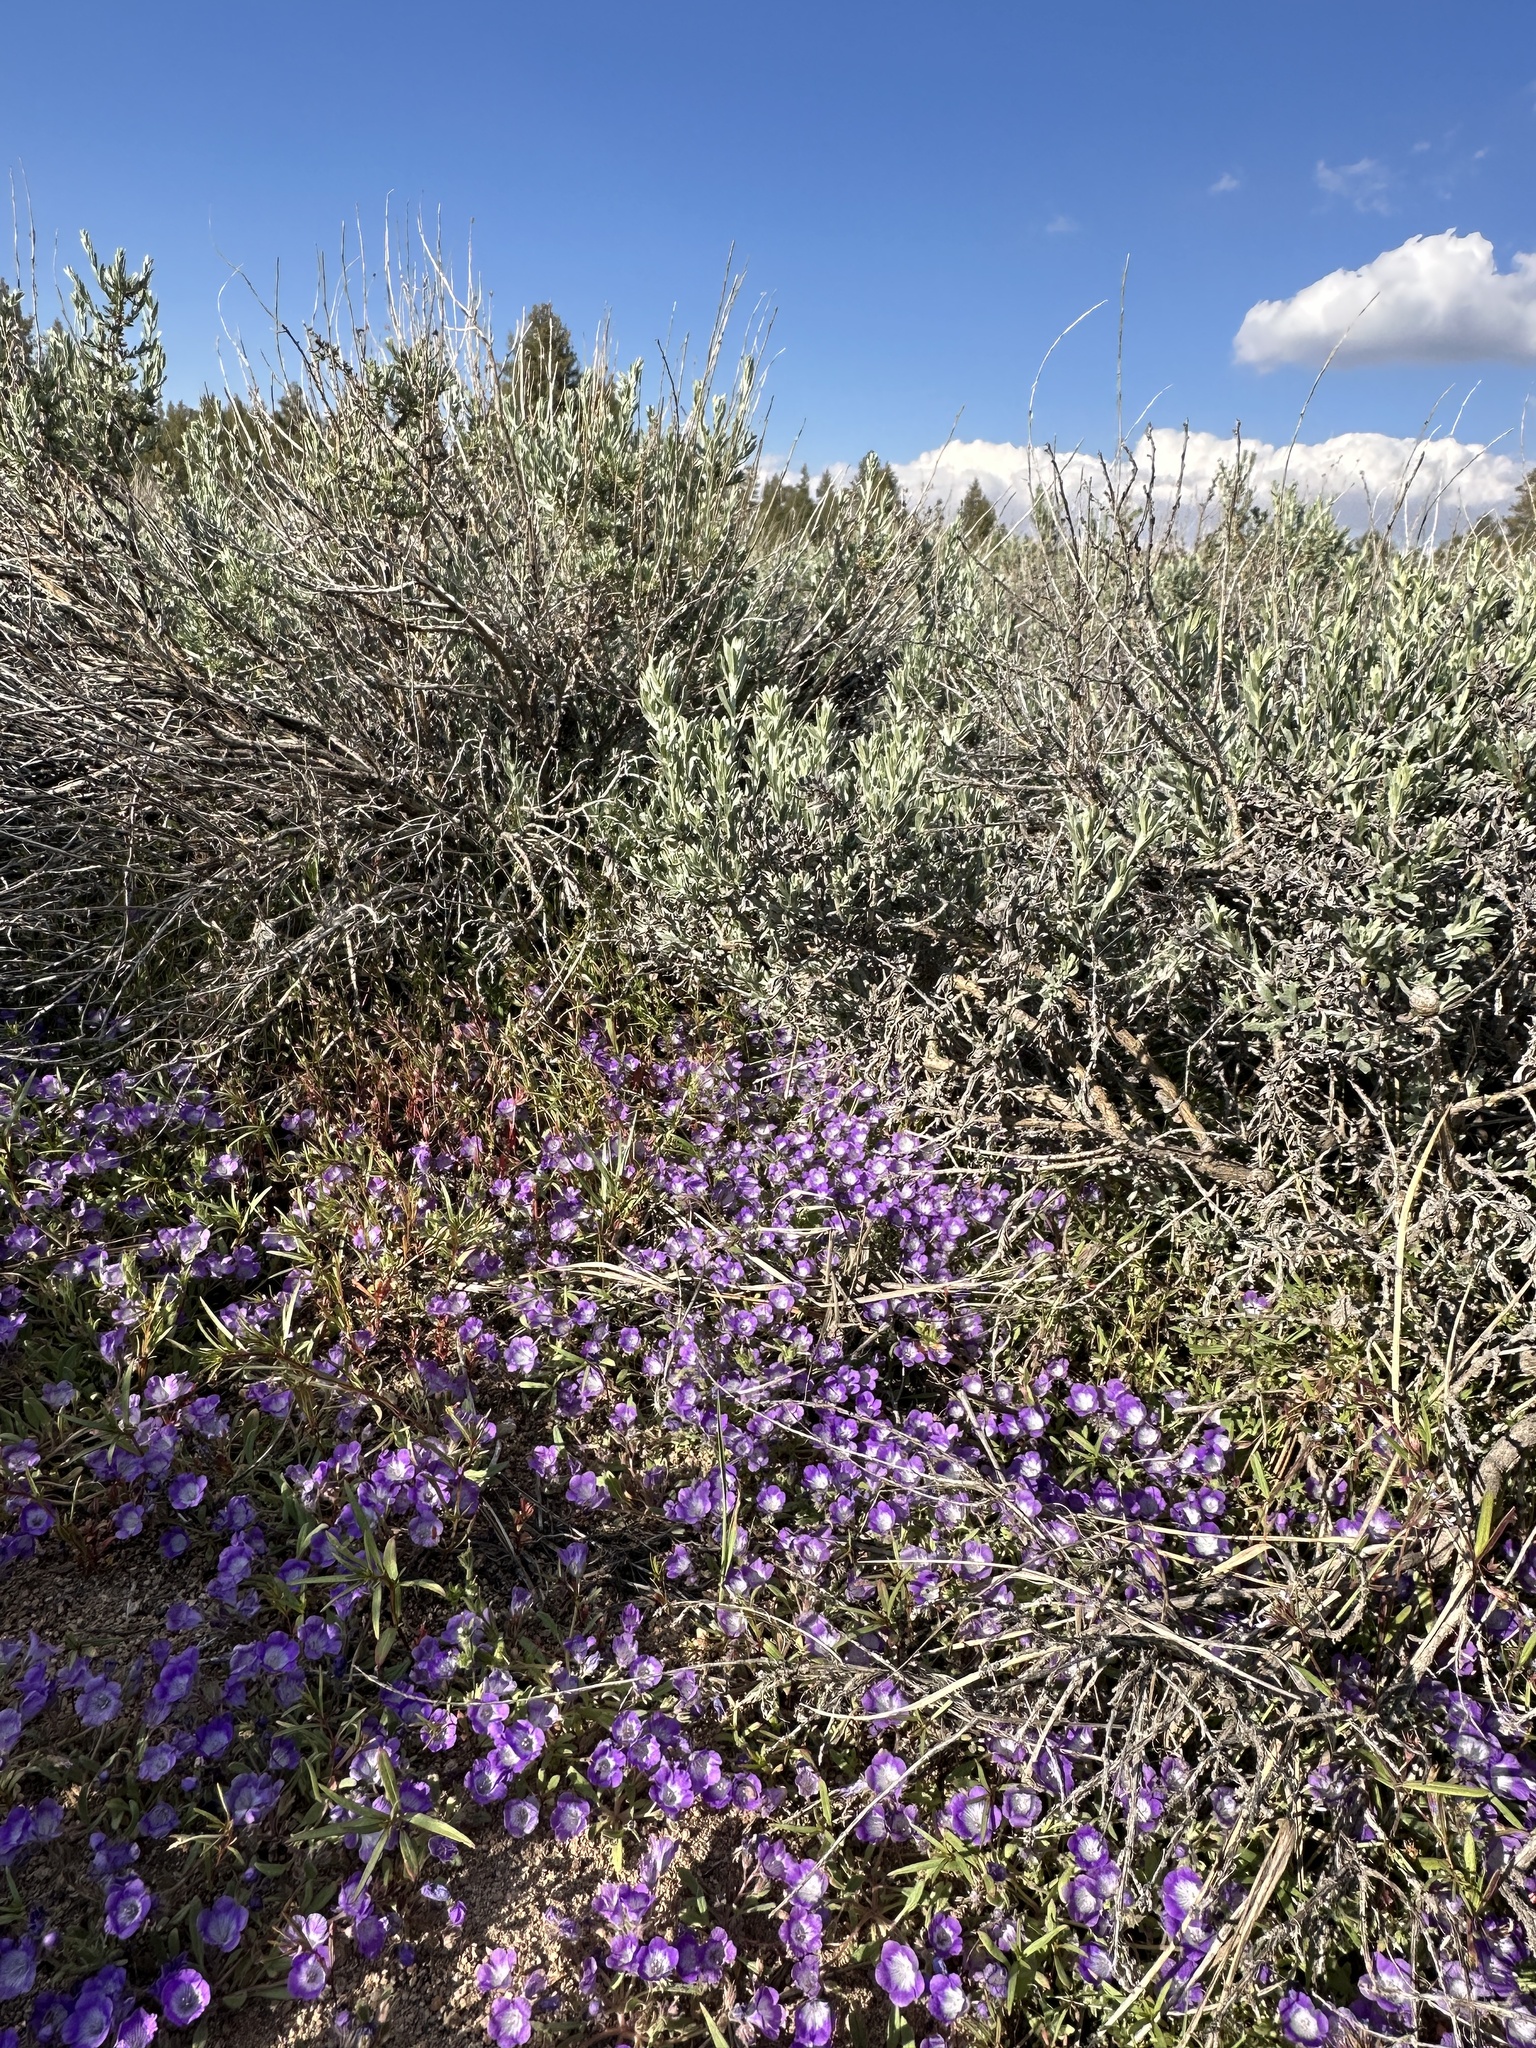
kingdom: Plantae
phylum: Tracheophyta
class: Magnoliopsida
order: Boraginales
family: Hydrophyllaceae
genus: Phacelia
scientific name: Phacelia curvipes
